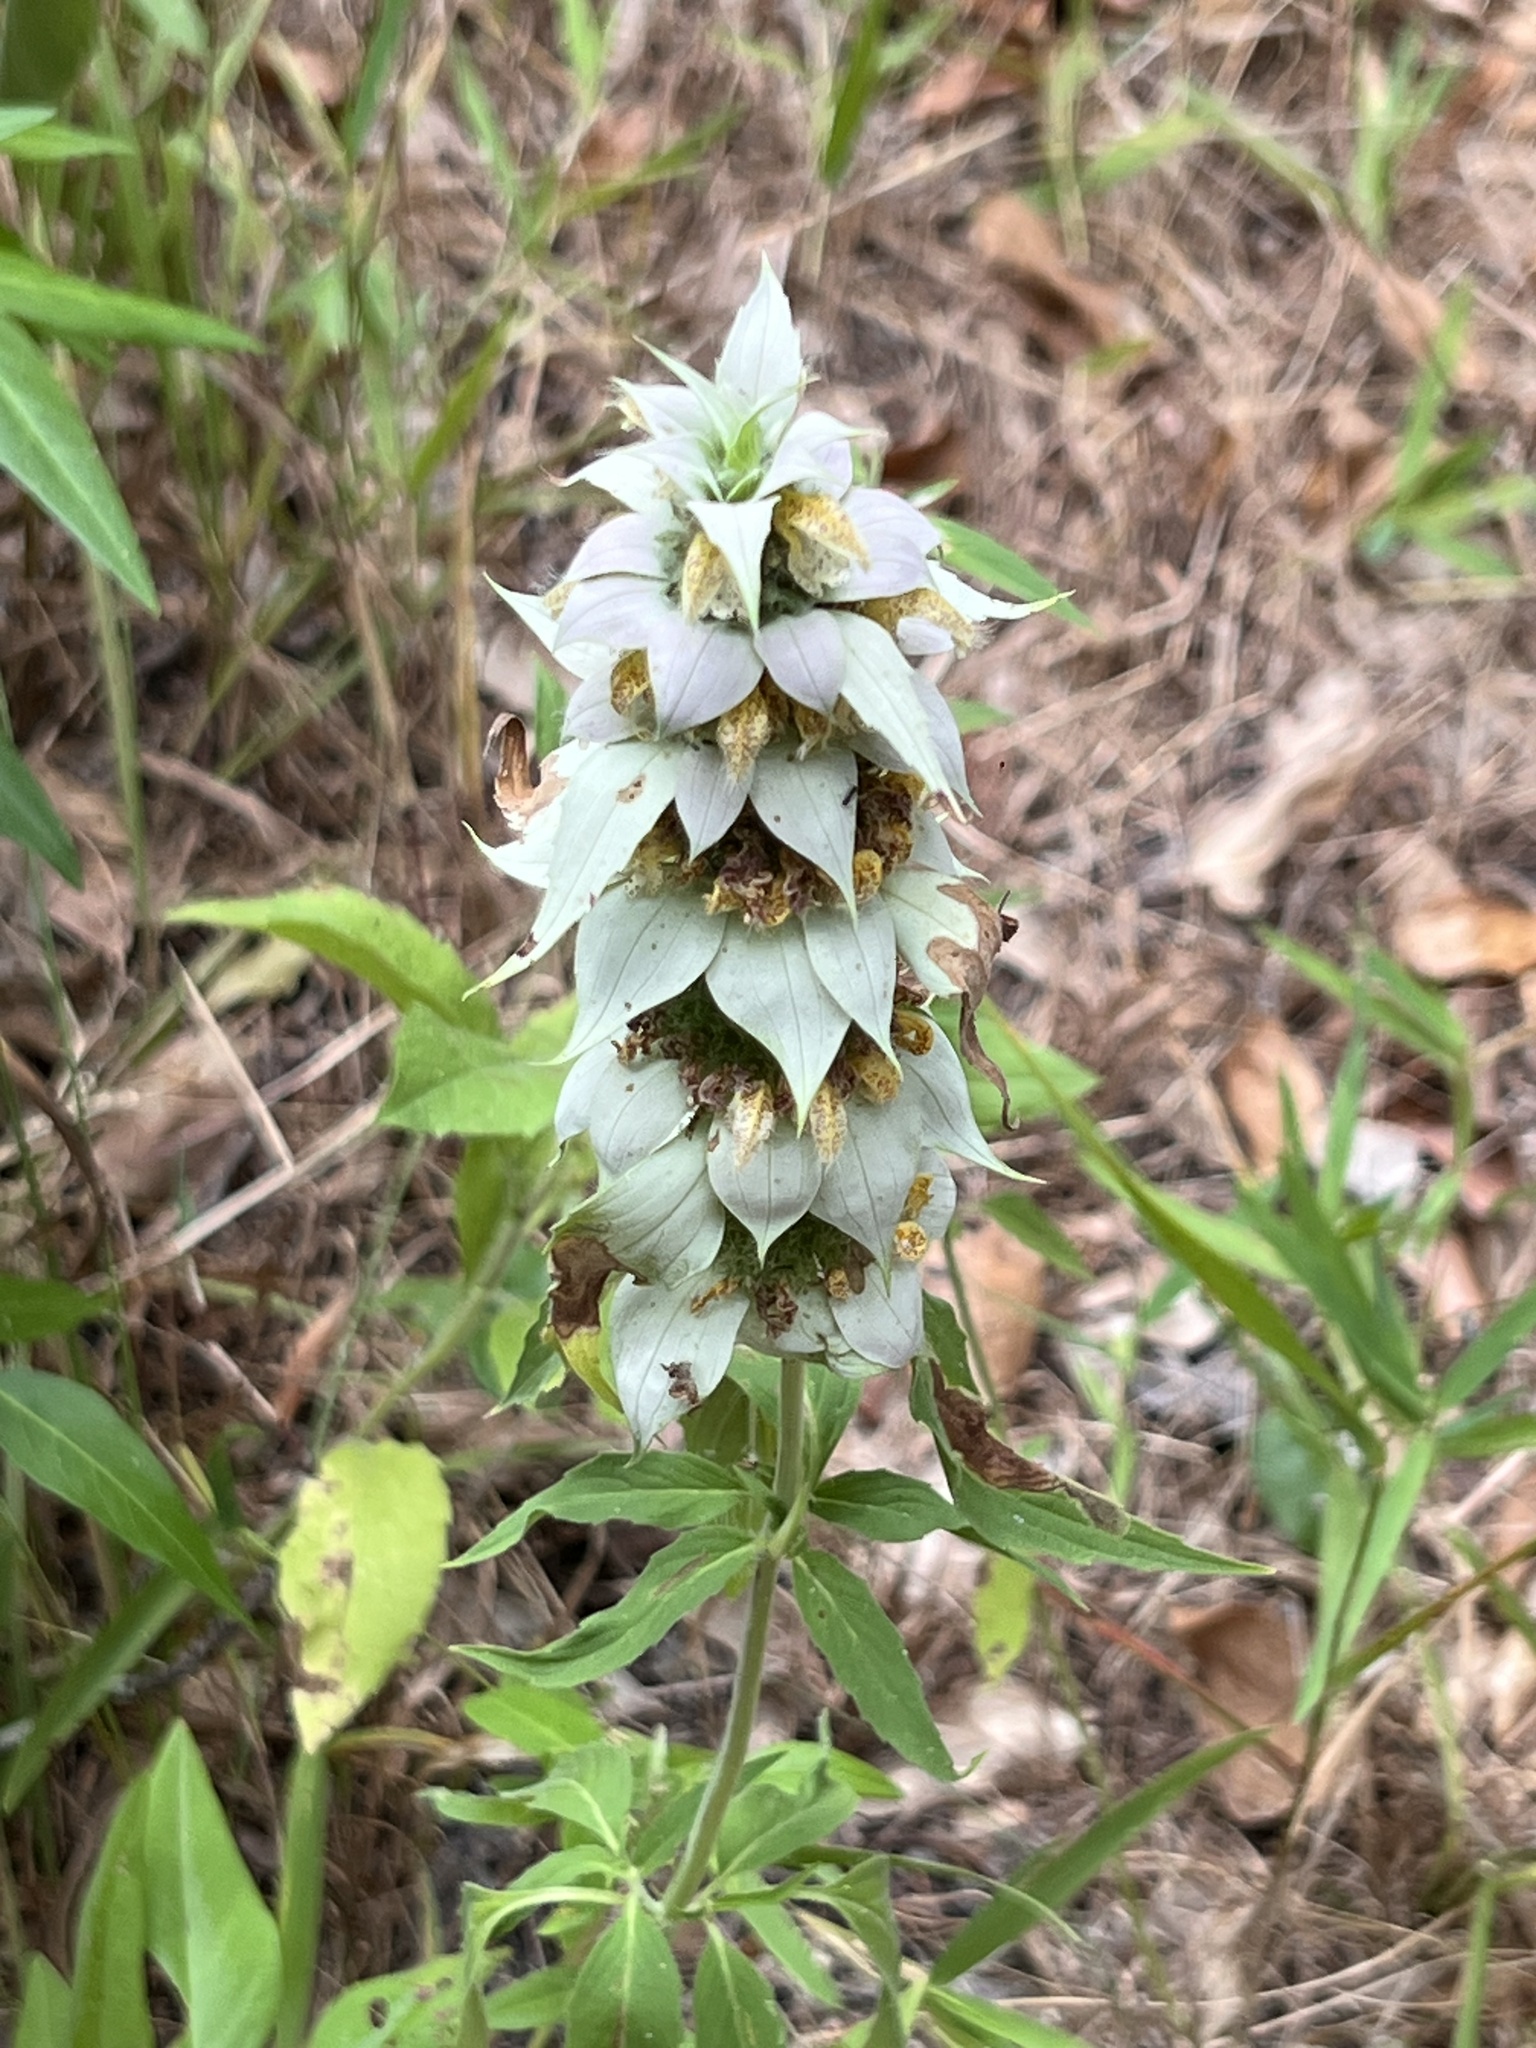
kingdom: Plantae
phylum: Tracheophyta
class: Magnoliopsida
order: Lamiales
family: Lamiaceae
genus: Monarda
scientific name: Monarda punctata
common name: Dotted monarda
